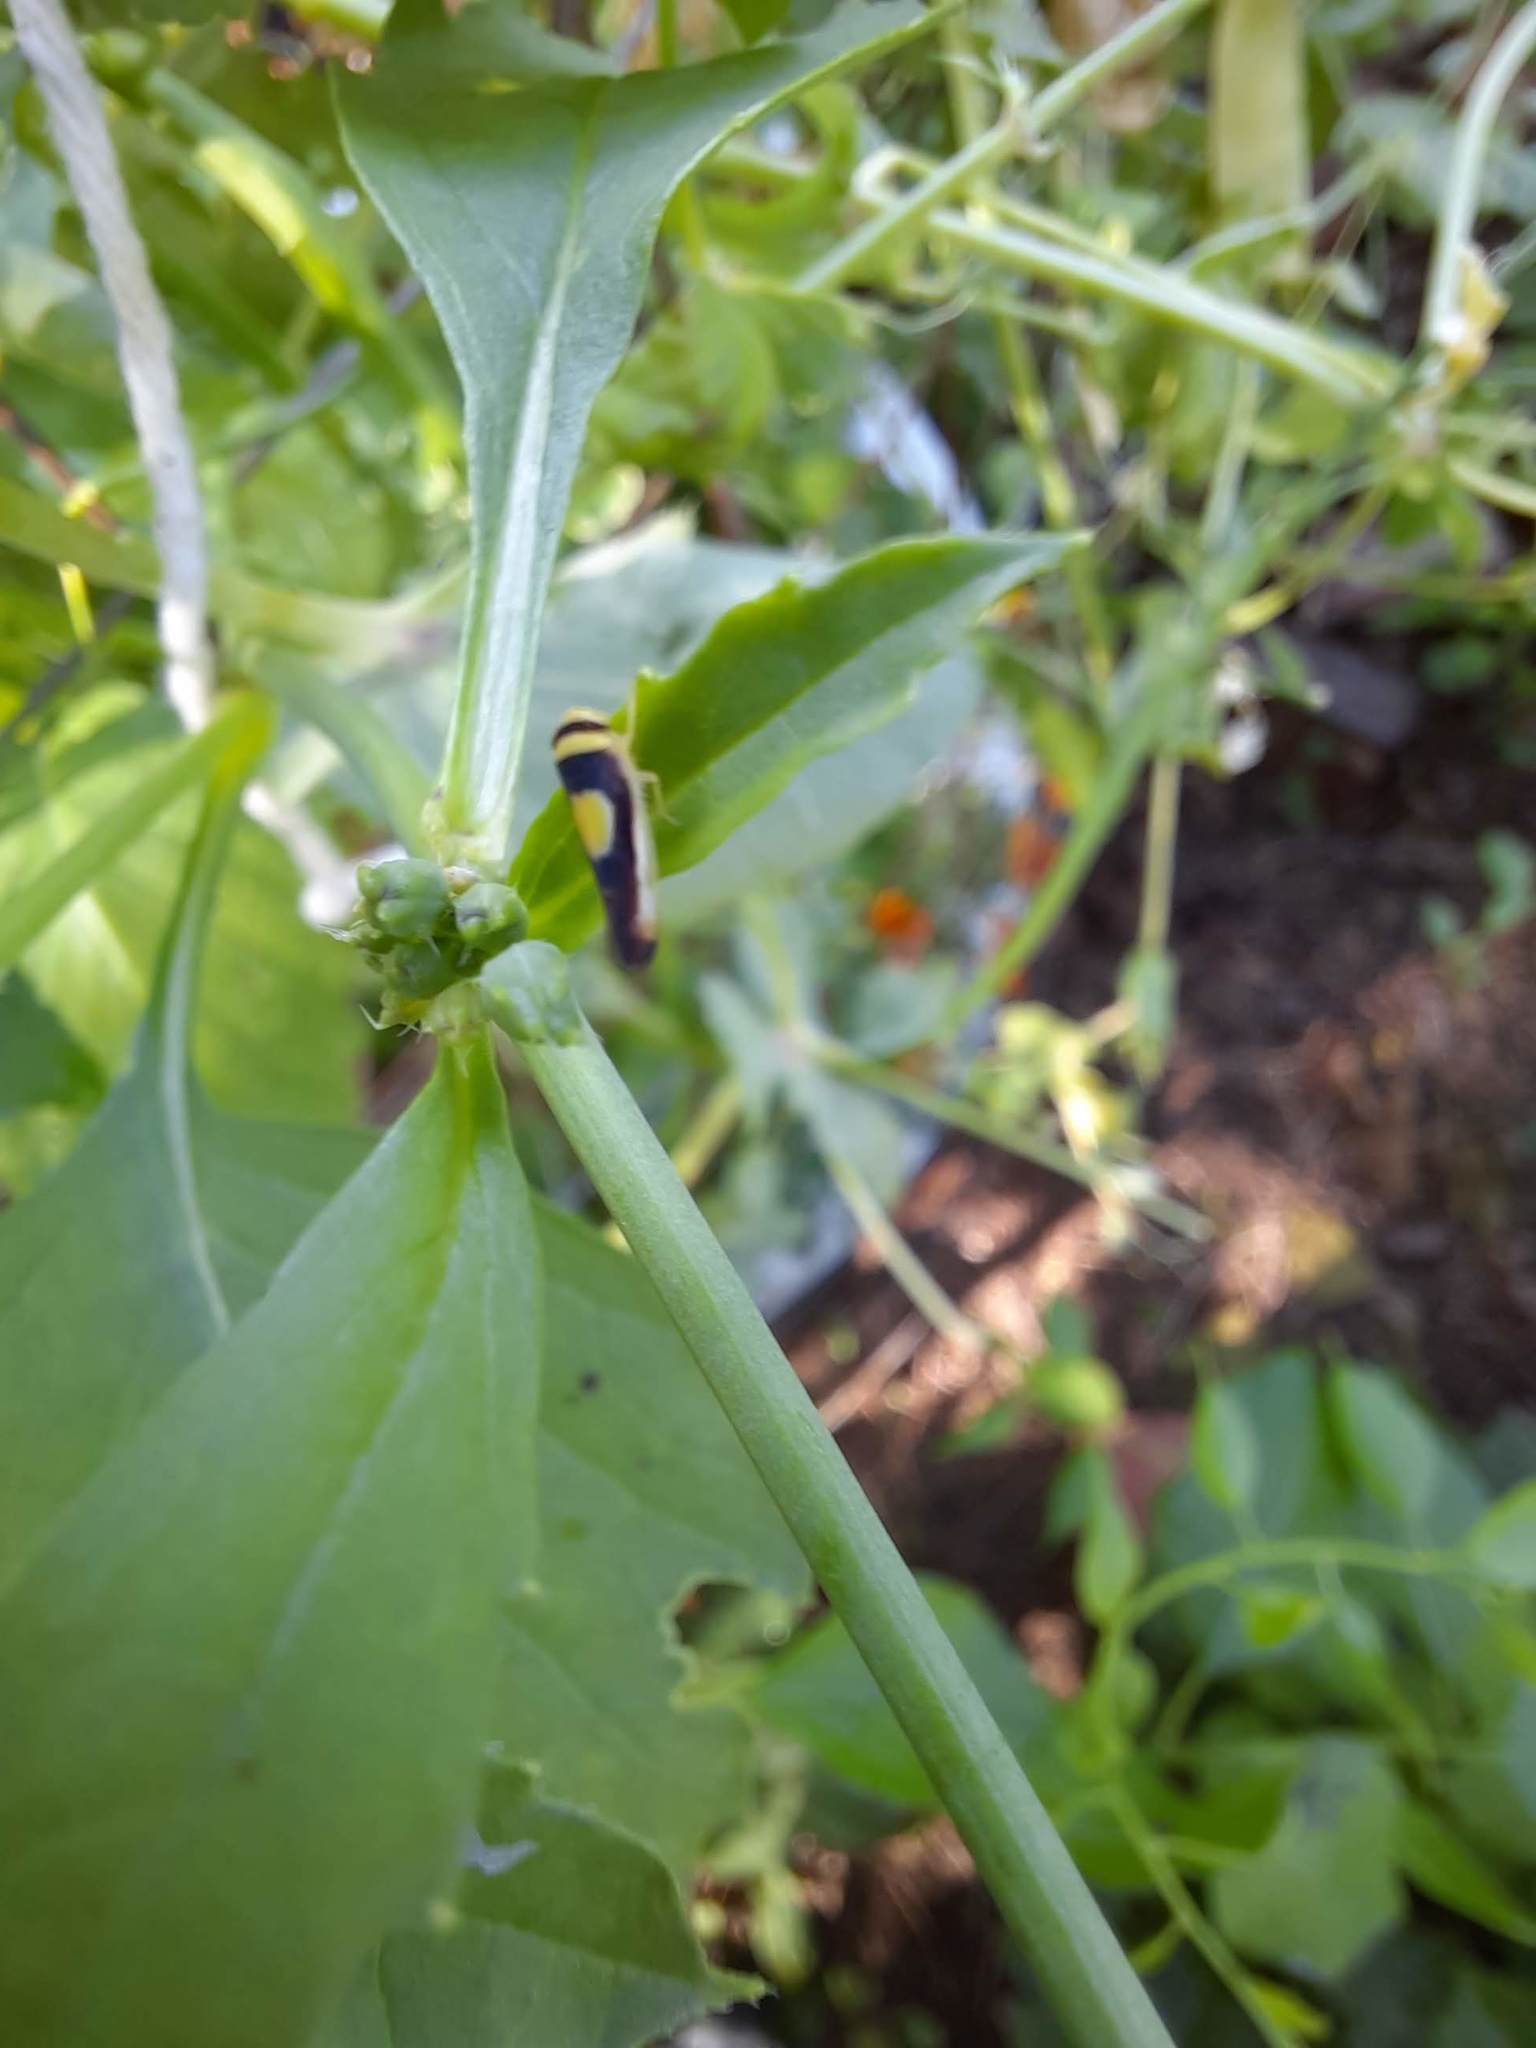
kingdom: Animalia
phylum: Arthropoda
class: Insecta
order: Hemiptera
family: Cicadellidae
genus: Colladonus
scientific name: Colladonus clitellarius
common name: The saddleback leafhopper
